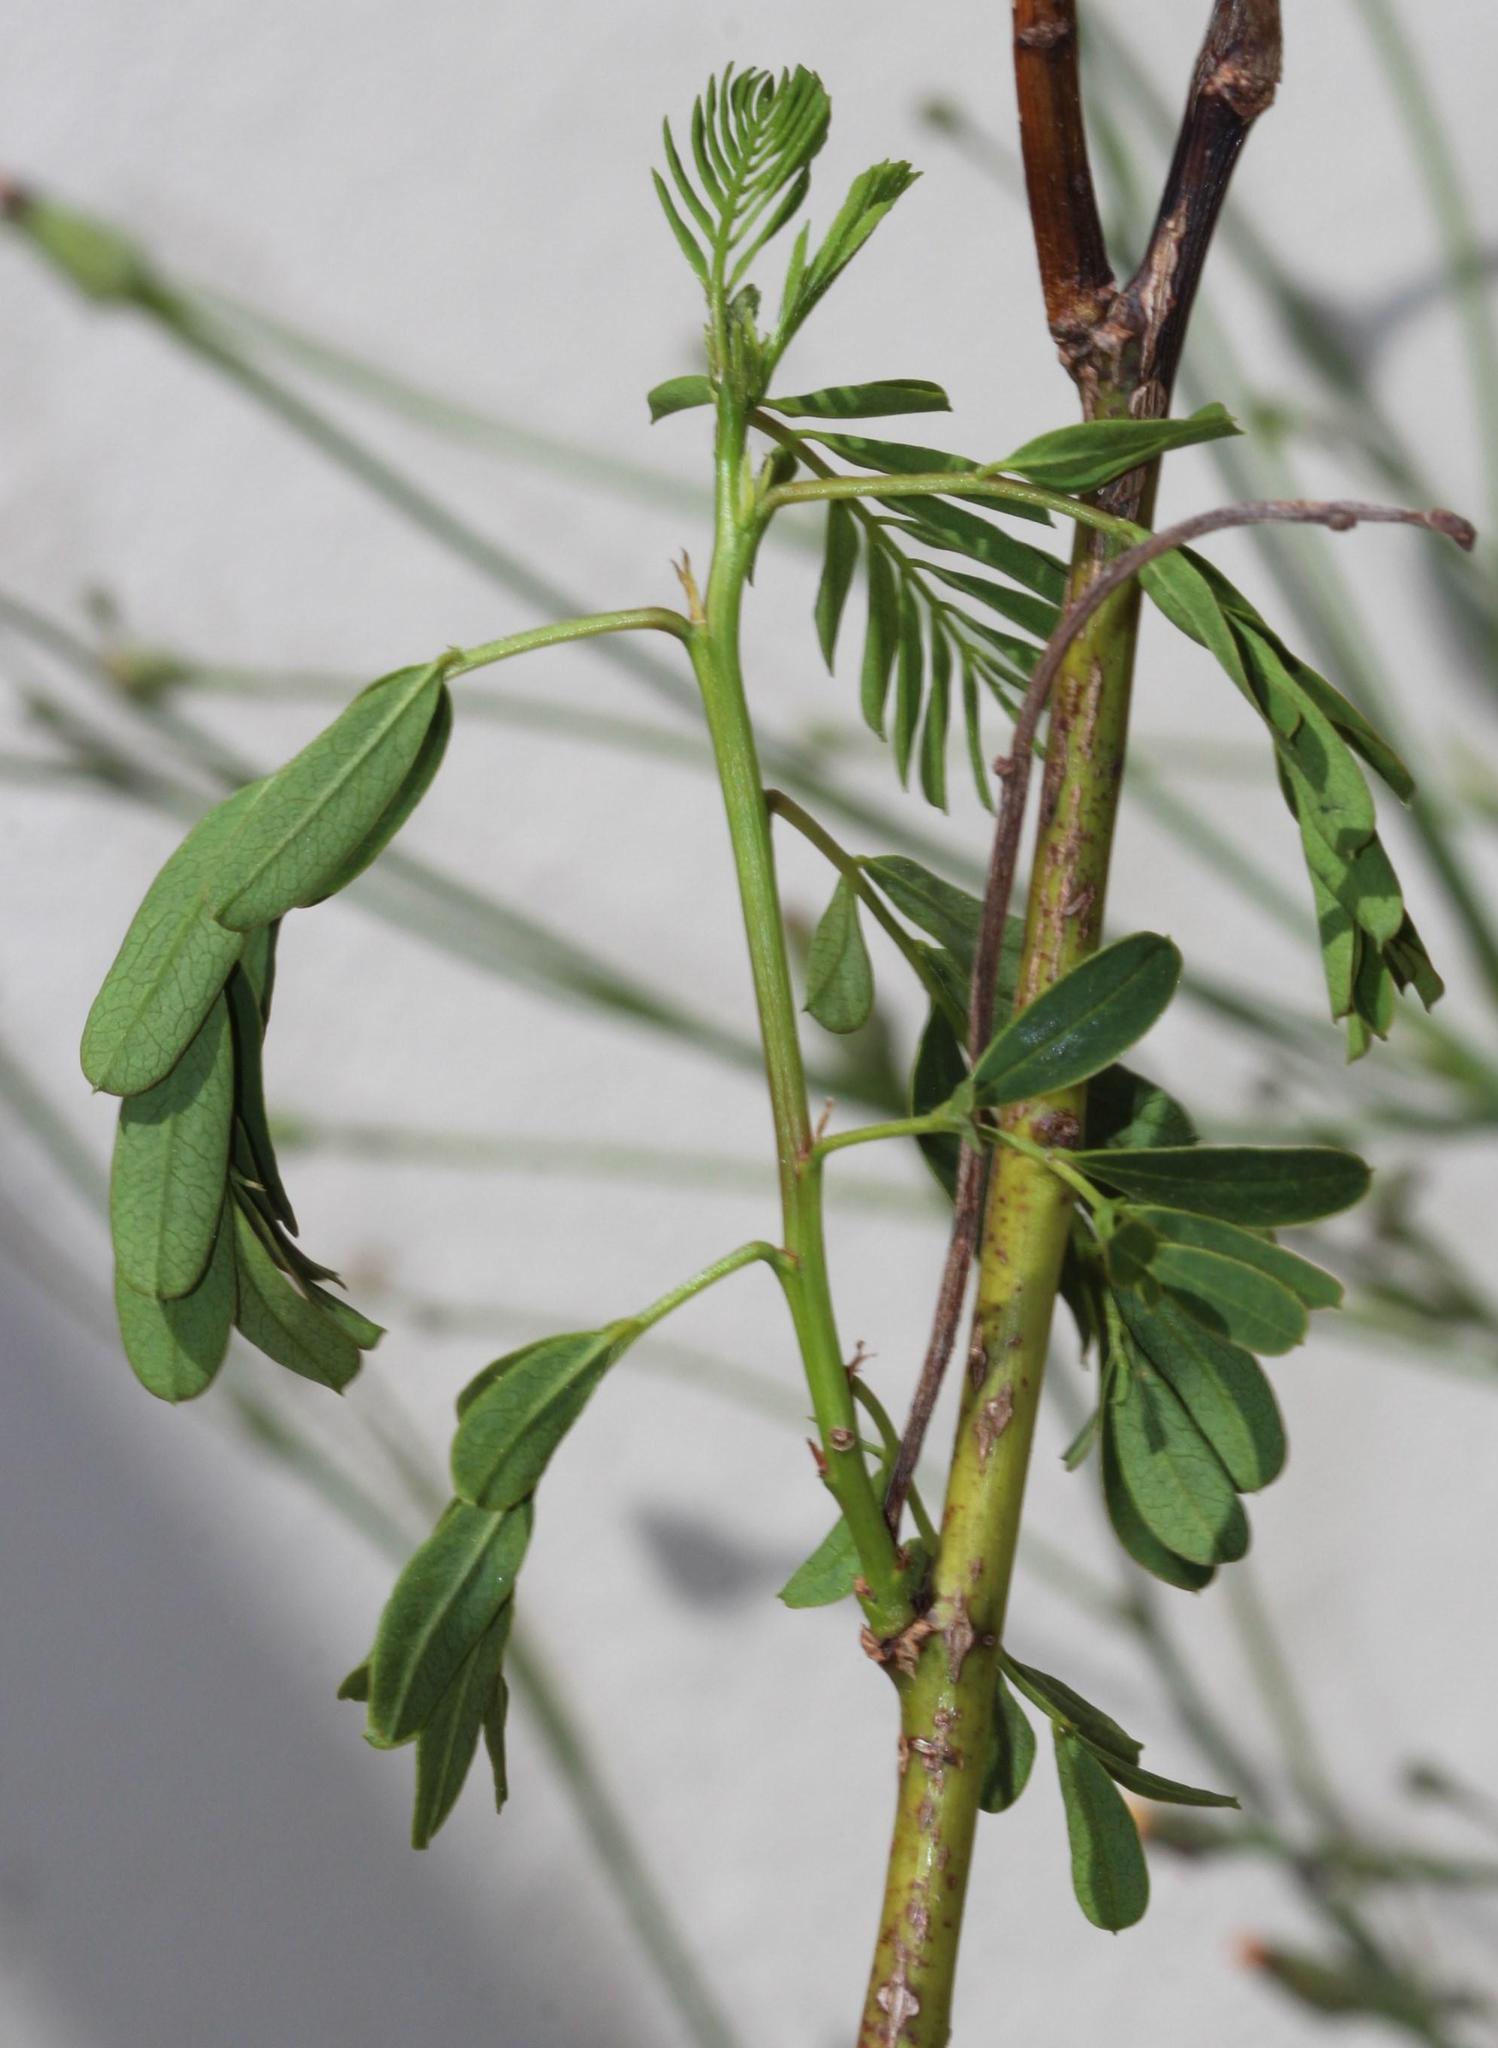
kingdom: Plantae
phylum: Tracheophyta
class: Magnoliopsida
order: Fabales
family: Fabaceae
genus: Sesbania
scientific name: Sesbania punicea
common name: Rattlebox
